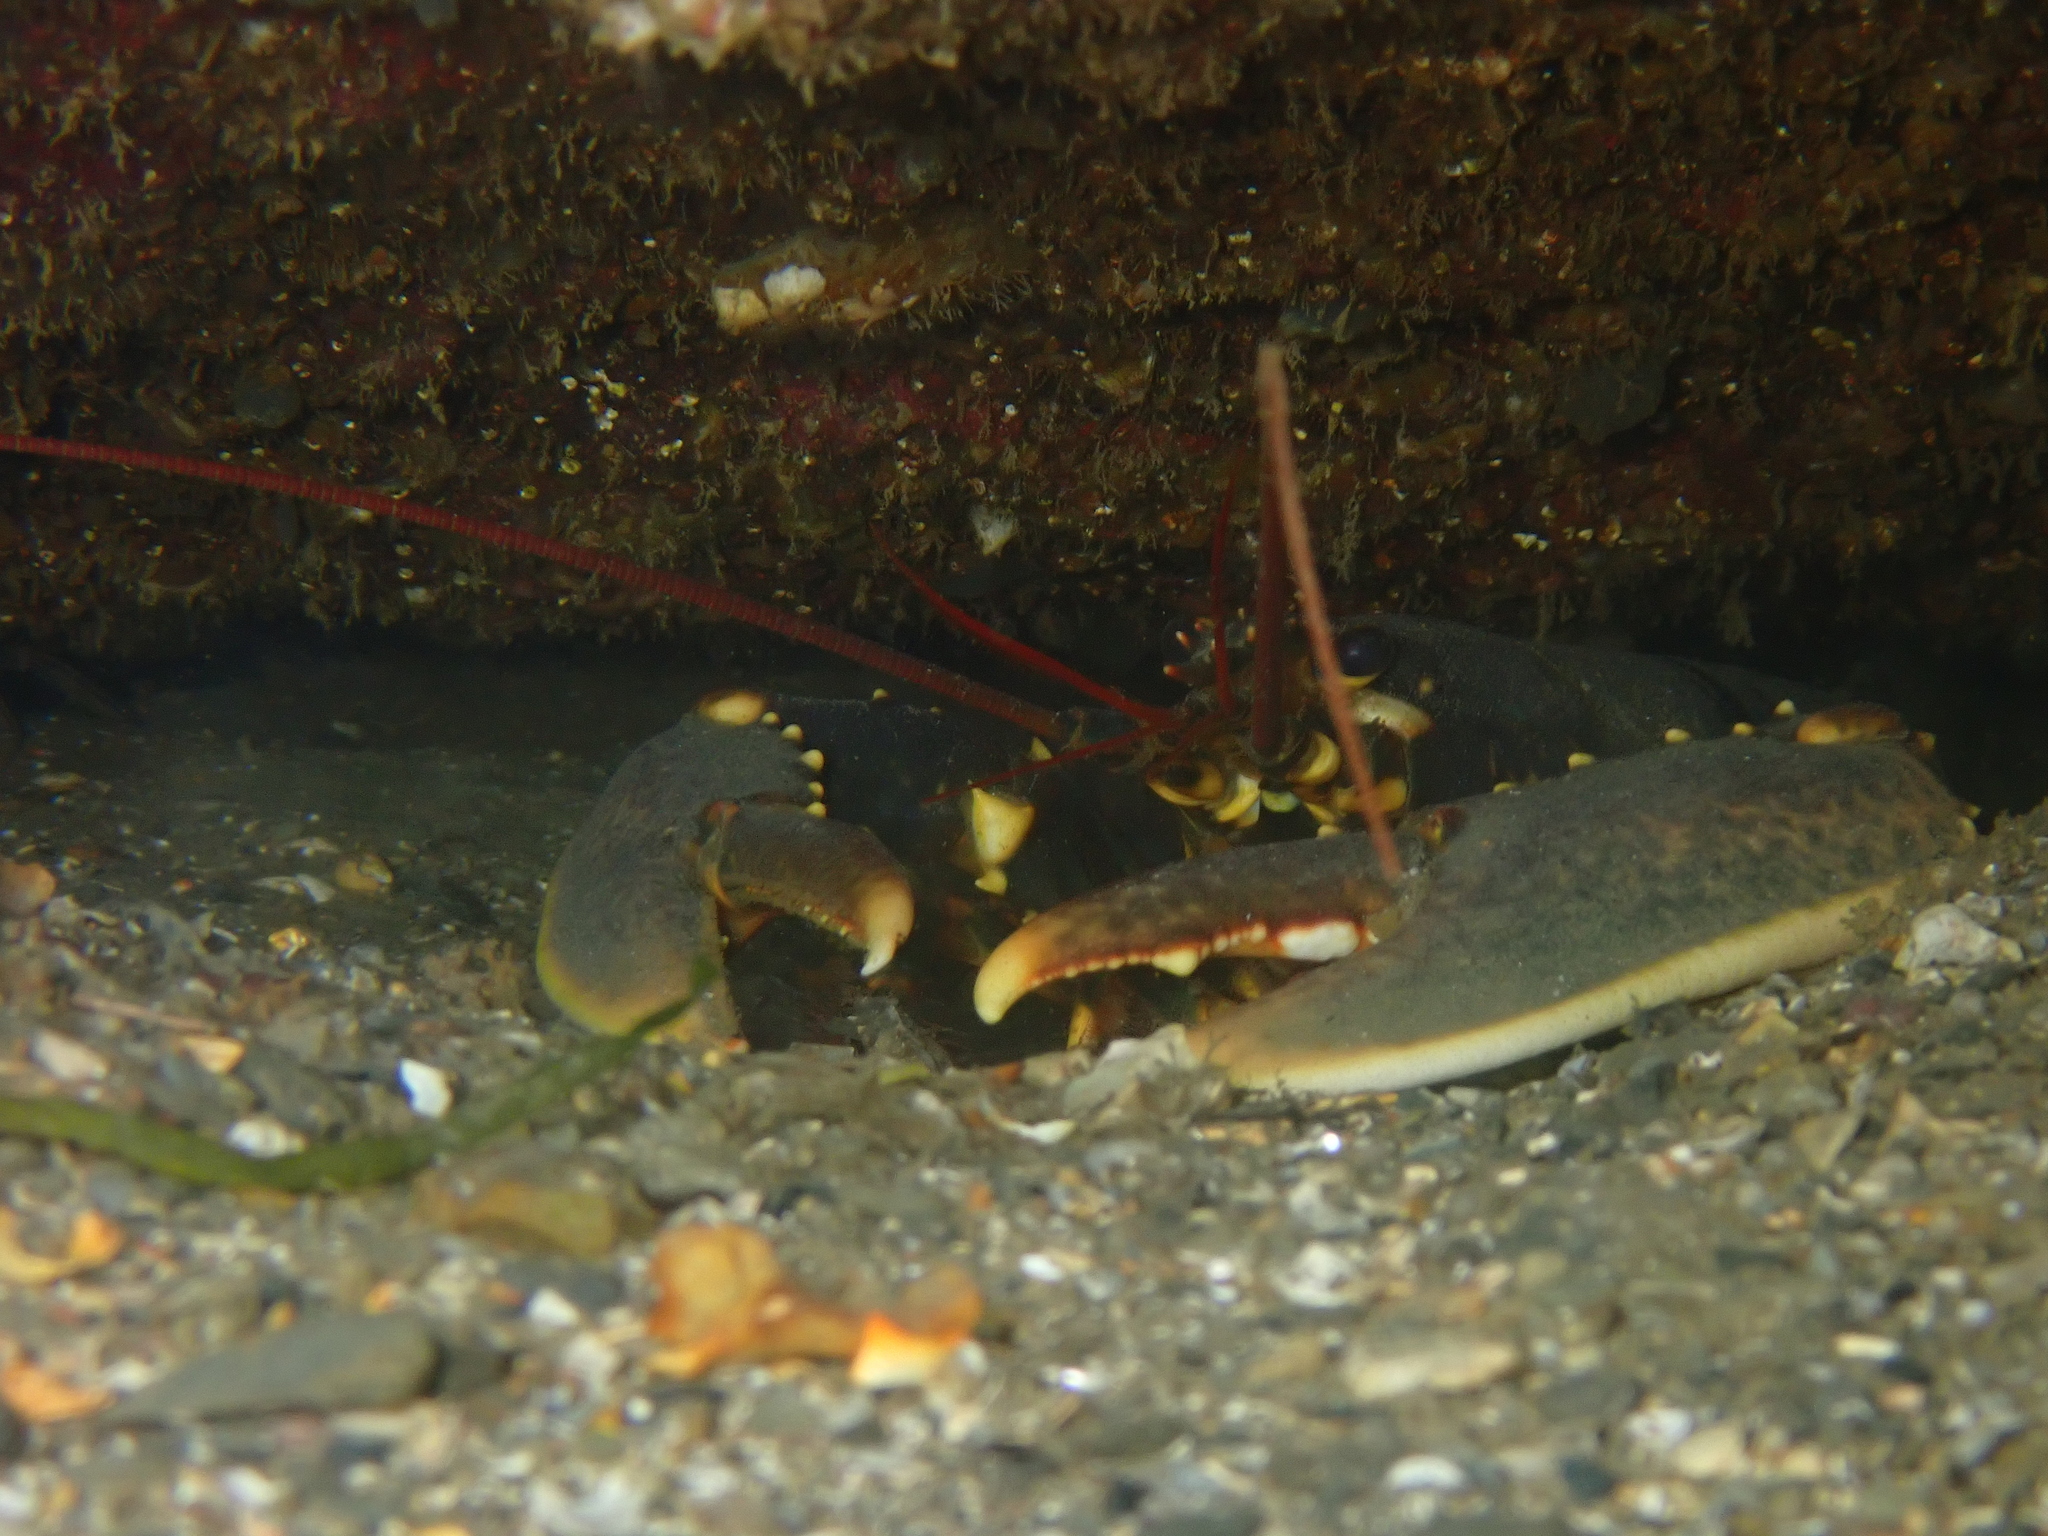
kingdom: Animalia
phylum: Arthropoda
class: Malacostraca
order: Decapoda
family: Nephropidae
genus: Homarus
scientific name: Homarus gammarus
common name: European lobster
